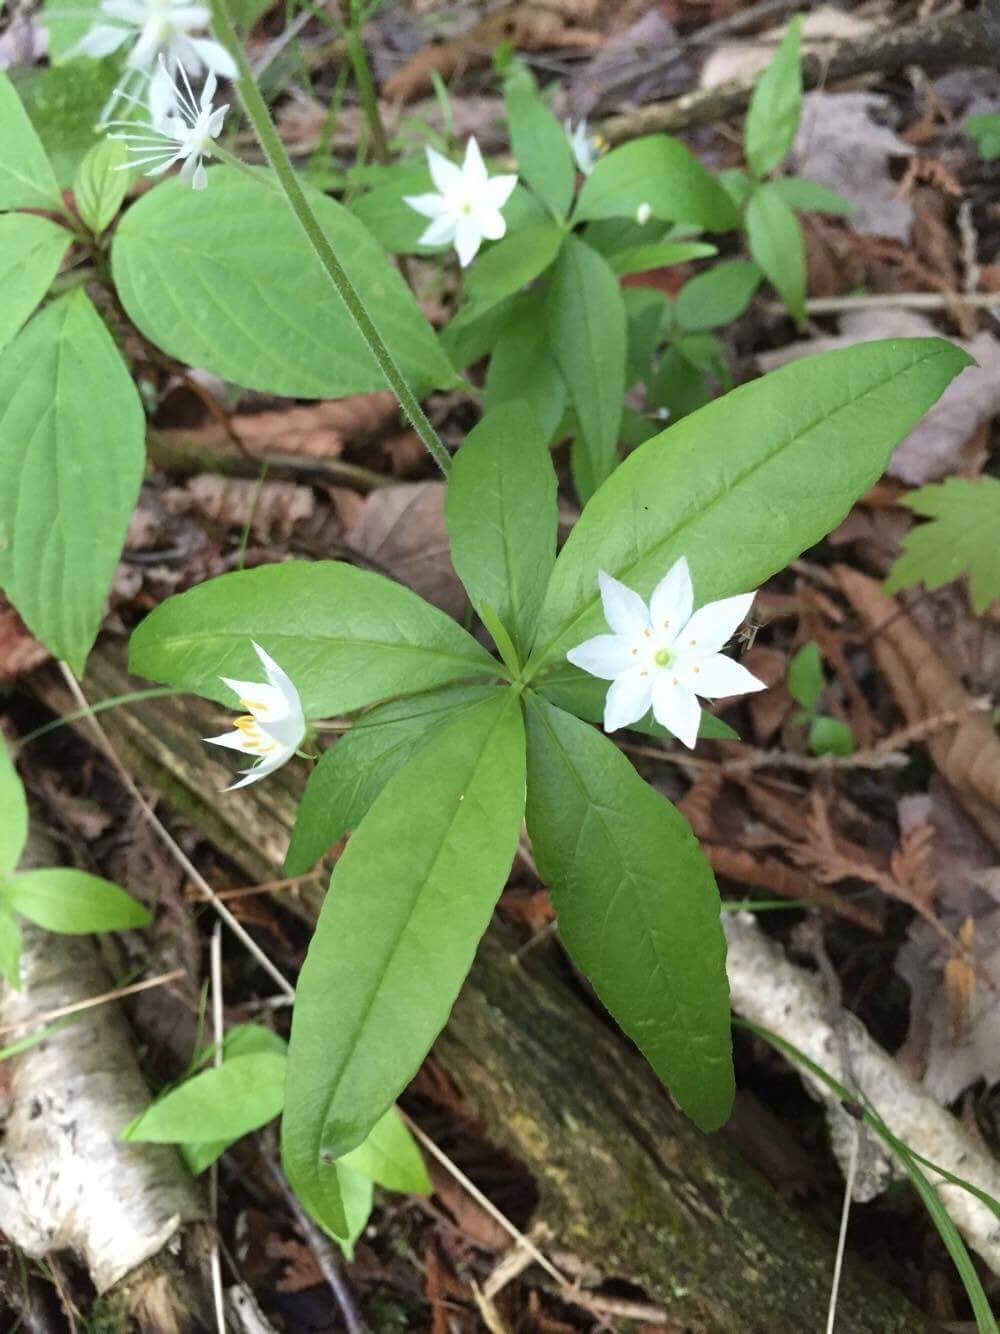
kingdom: Plantae
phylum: Tracheophyta
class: Magnoliopsida
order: Ericales
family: Primulaceae
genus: Lysimachia
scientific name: Lysimachia borealis
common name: American starflower
